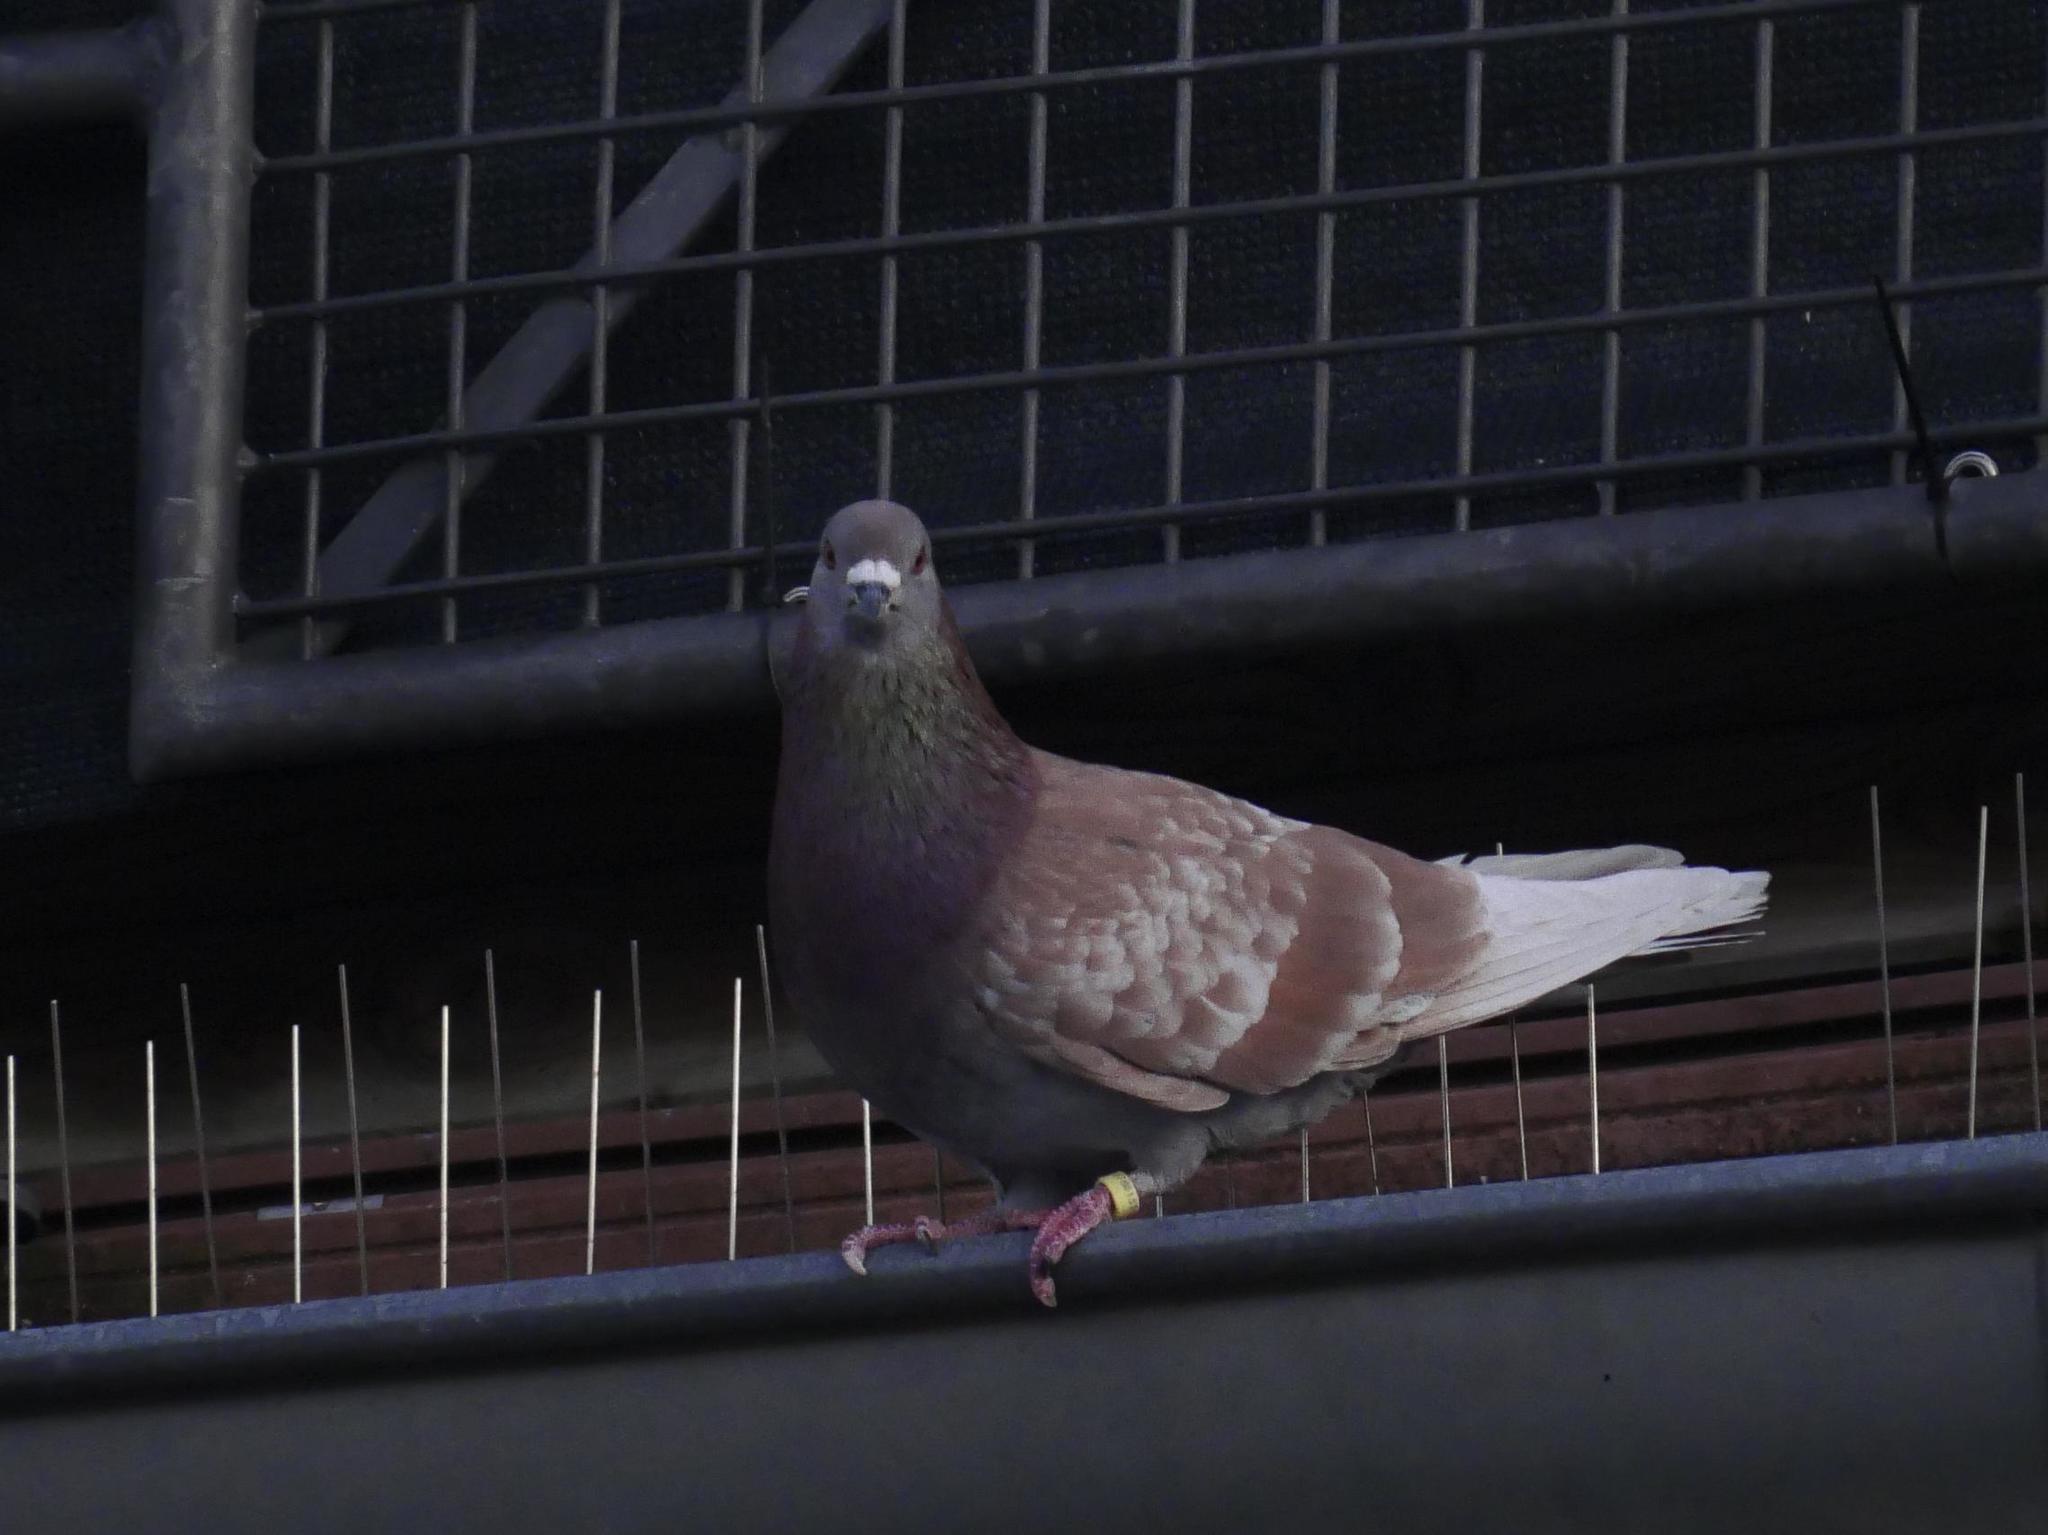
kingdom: Animalia
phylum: Chordata
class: Aves
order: Columbiformes
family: Columbidae
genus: Columba
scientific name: Columba livia
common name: Rock pigeon
